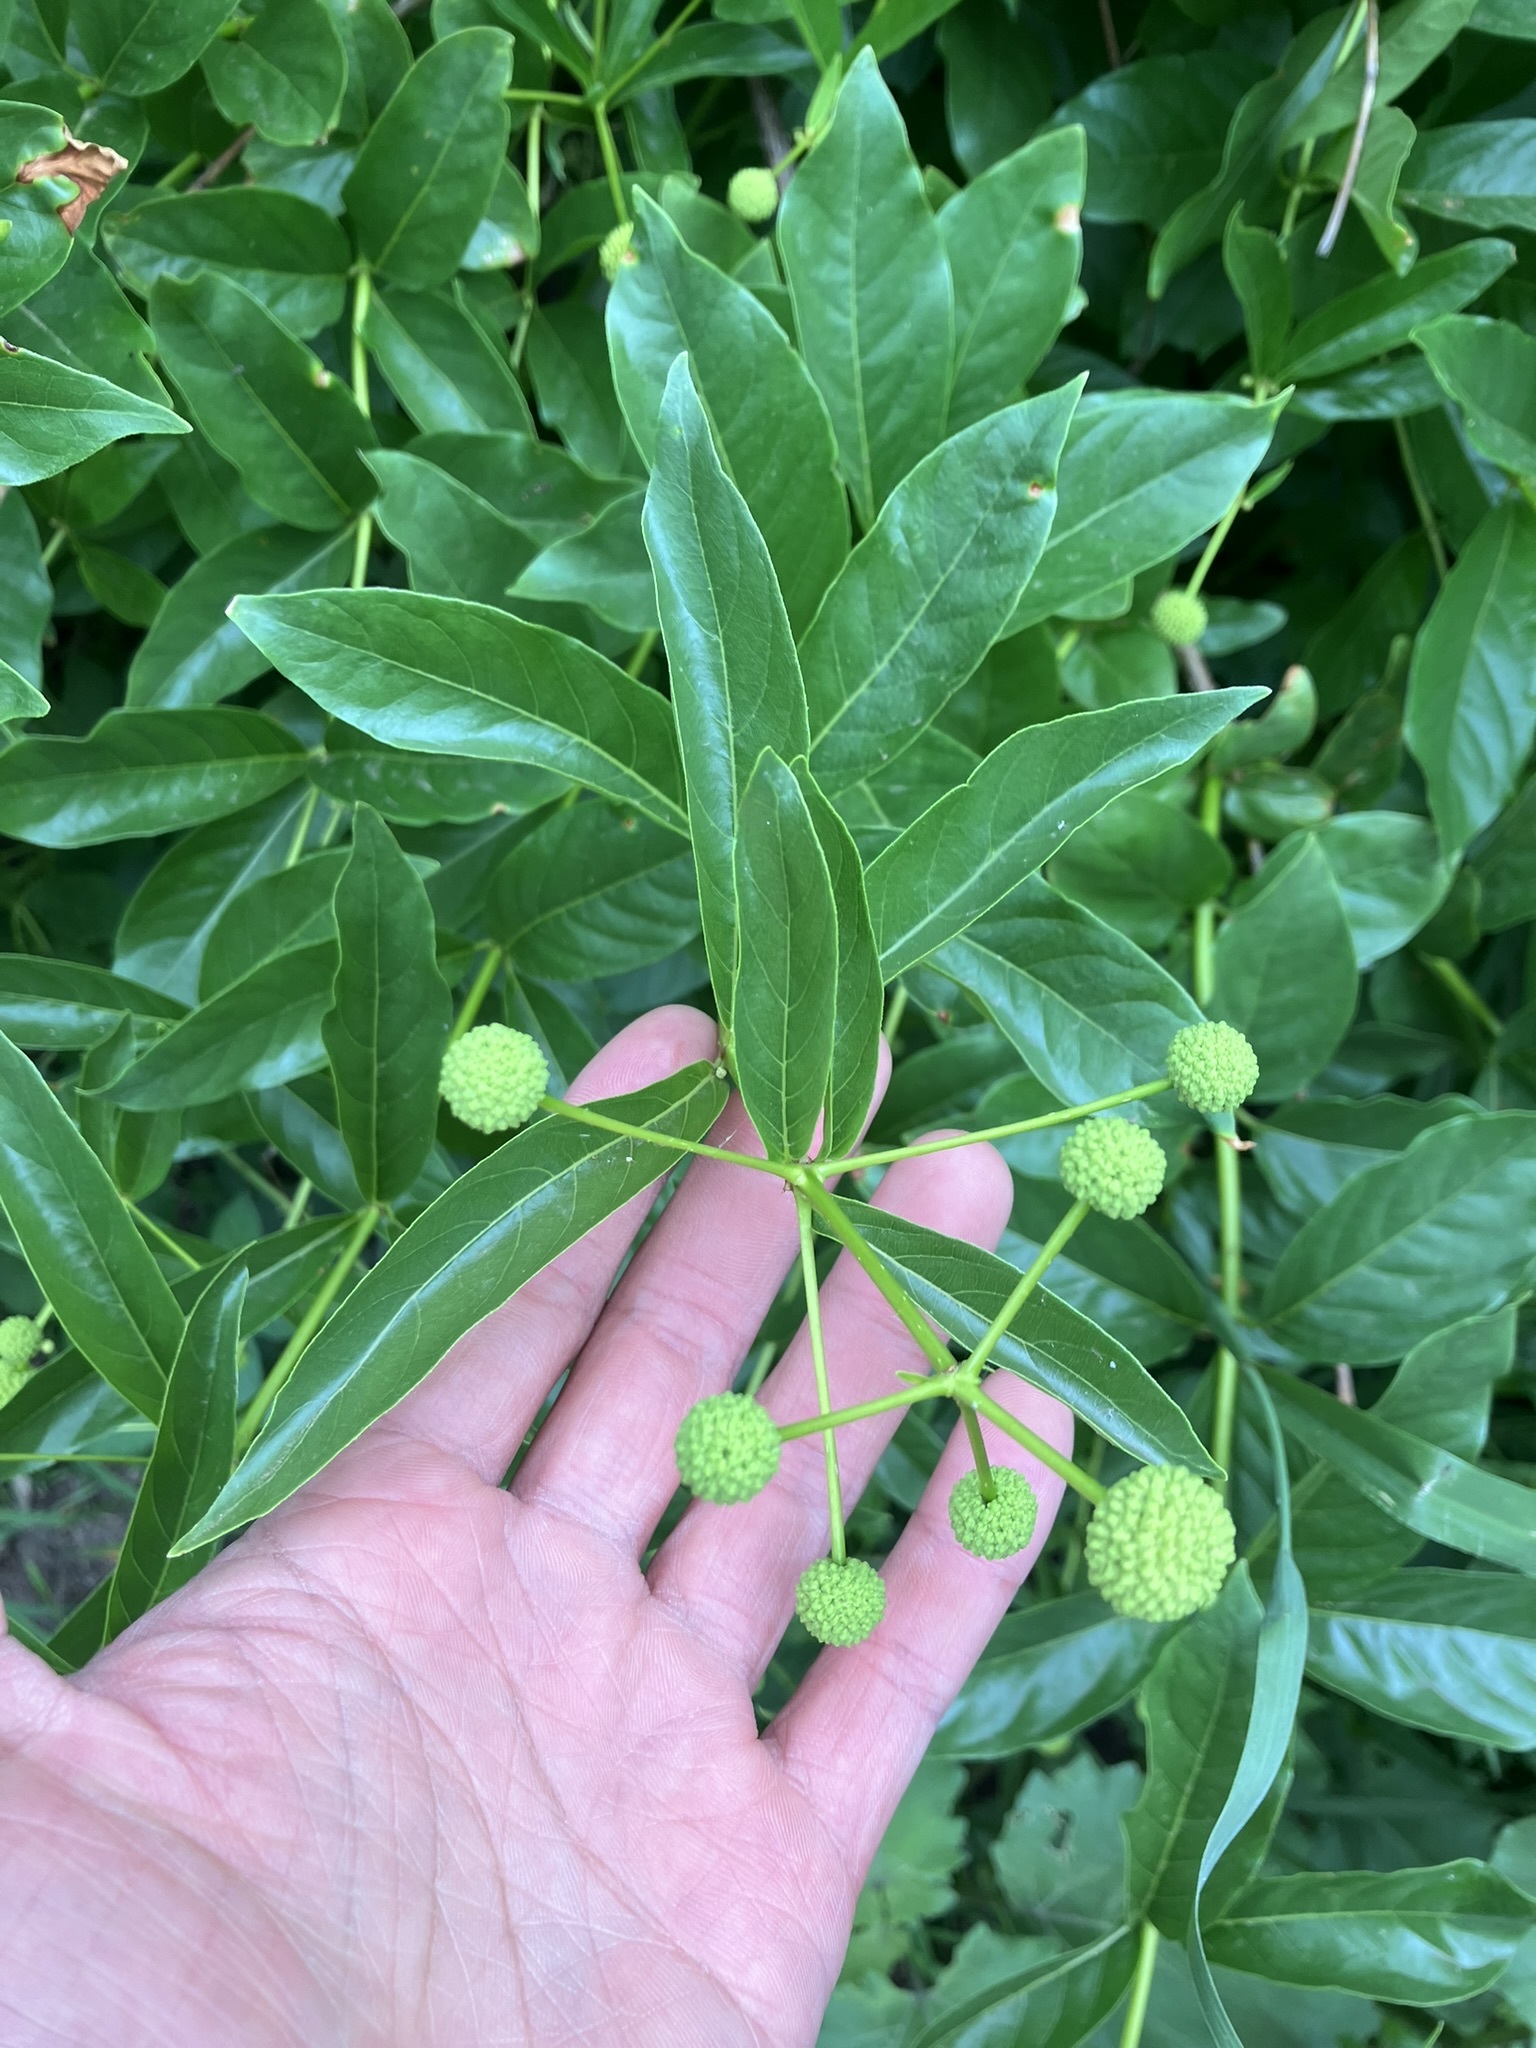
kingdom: Plantae
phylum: Tracheophyta
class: Magnoliopsida
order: Gentianales
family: Rubiaceae
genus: Cephalanthus
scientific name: Cephalanthus occidentalis
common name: Button-willow
